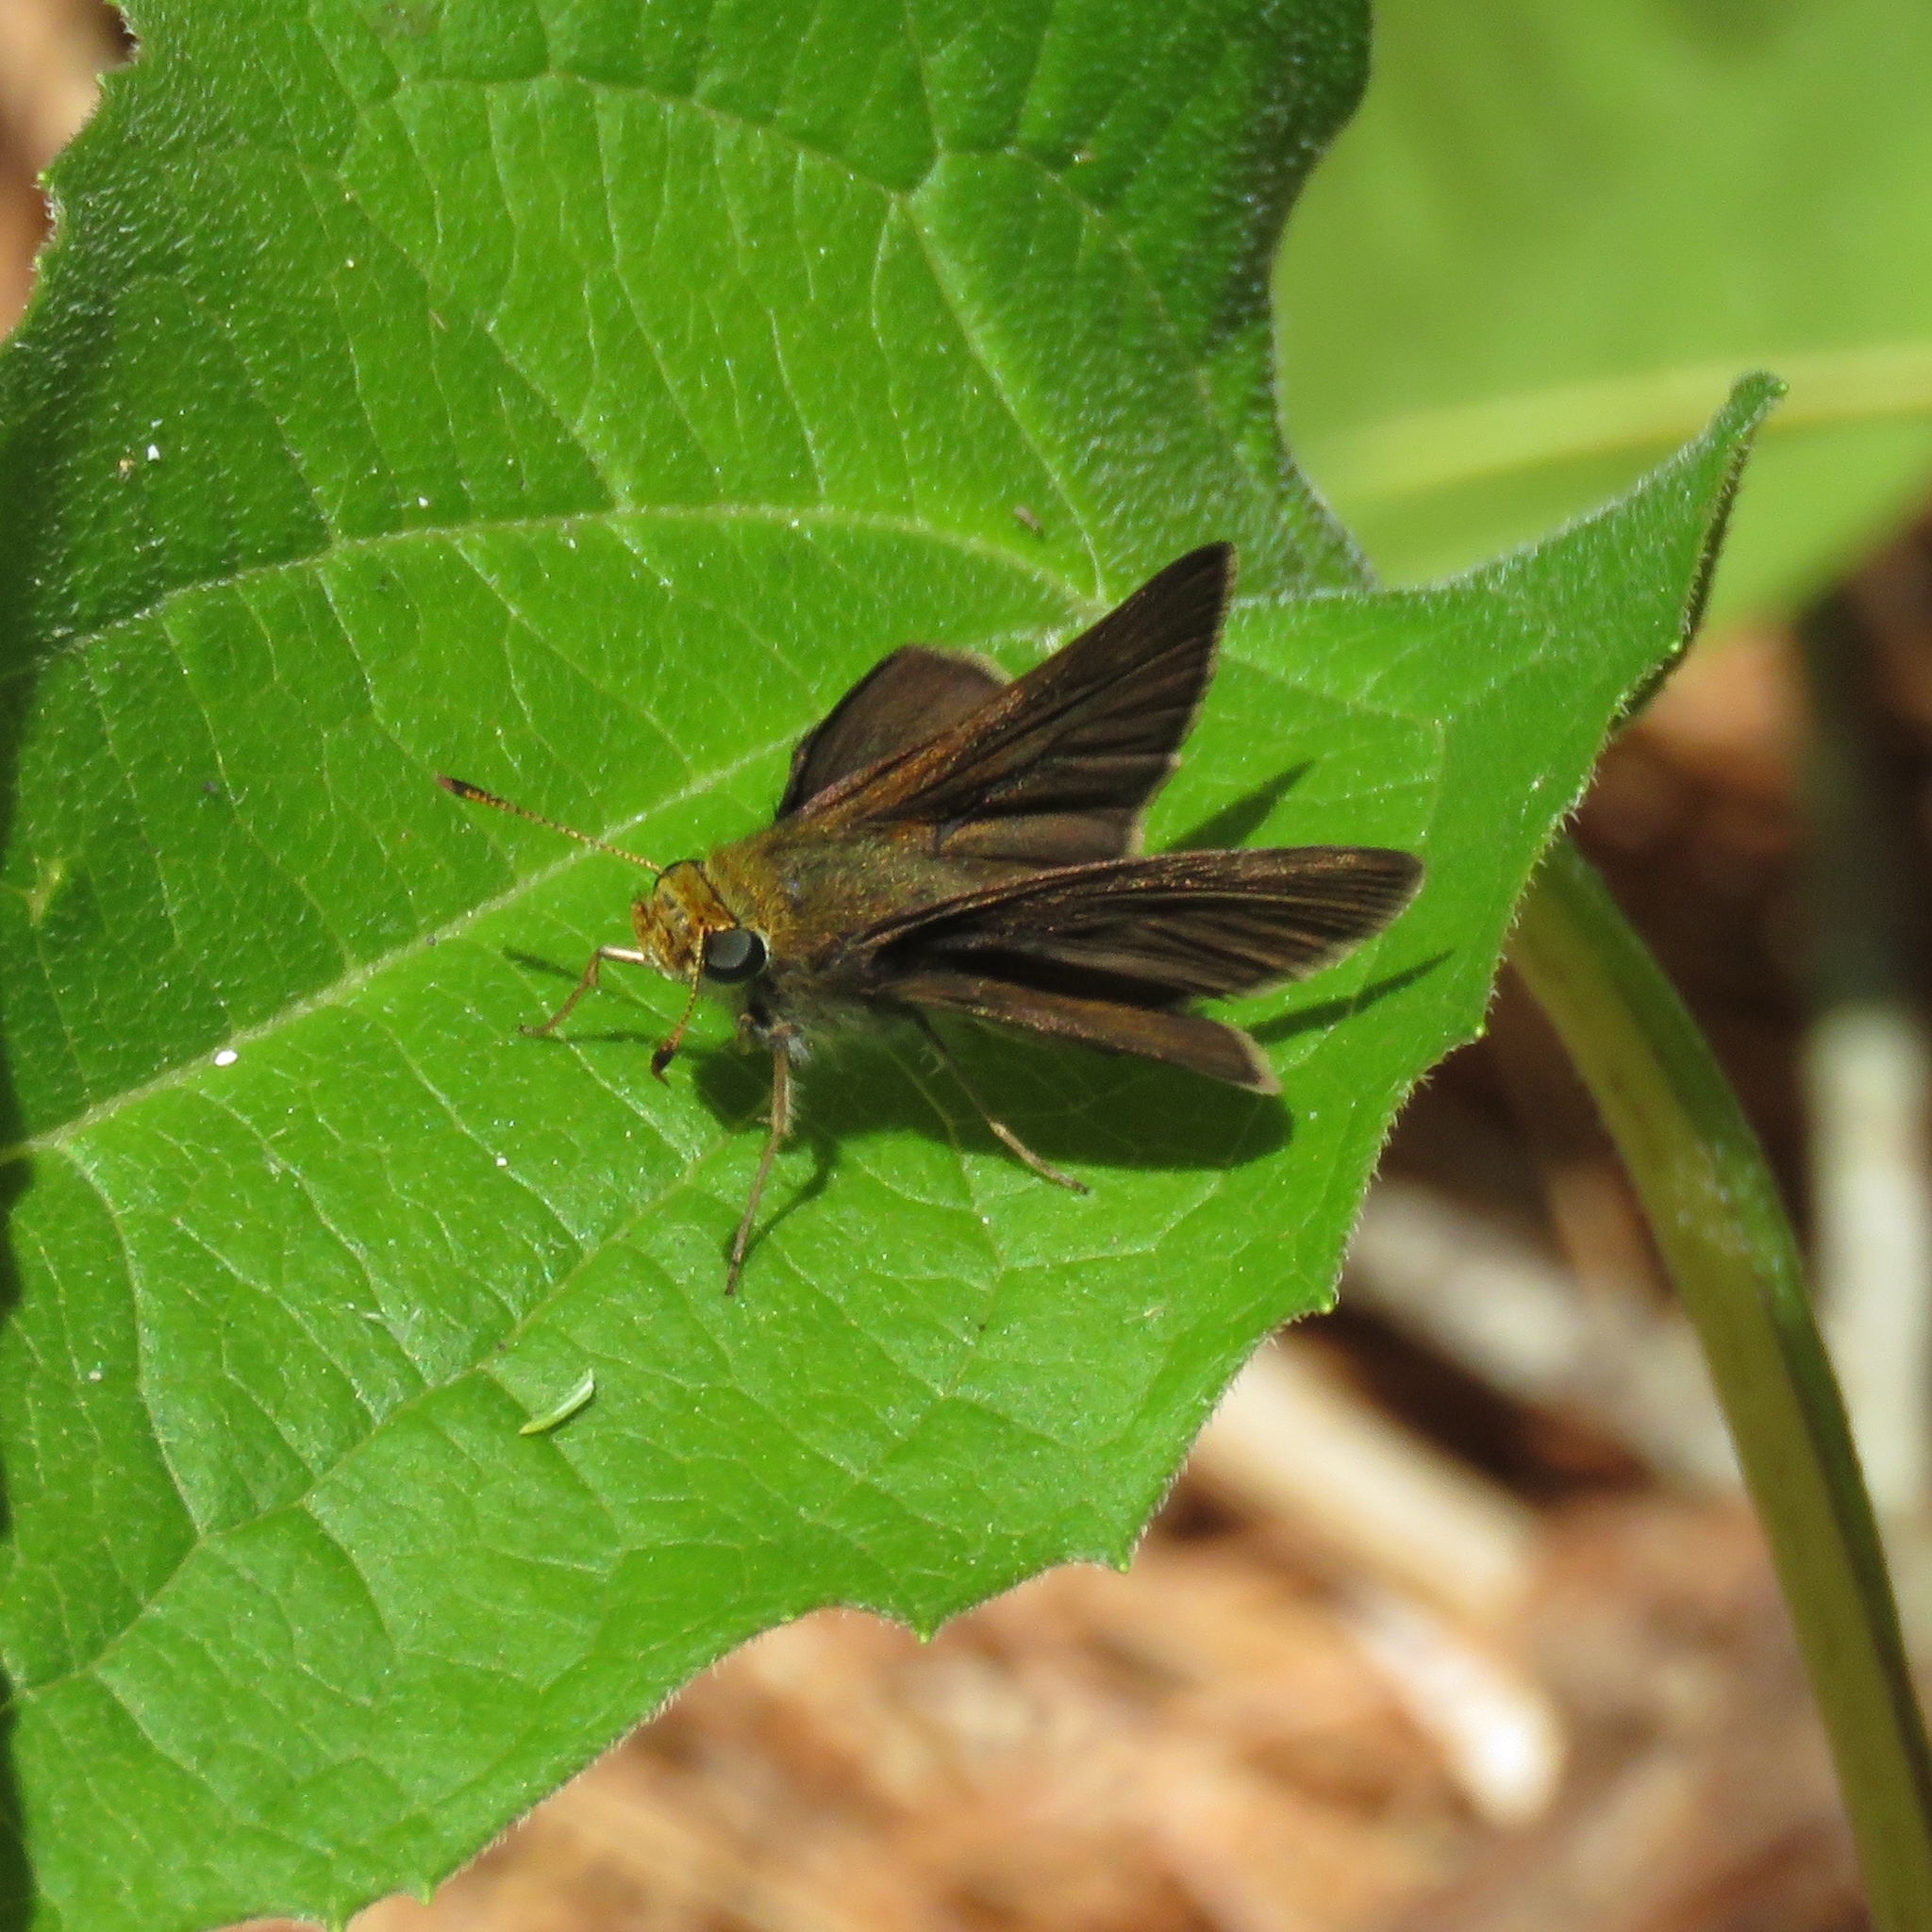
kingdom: Animalia
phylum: Arthropoda
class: Insecta
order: Lepidoptera
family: Hesperiidae
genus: Euphyes
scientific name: Euphyes vestris
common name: Dun skipper
